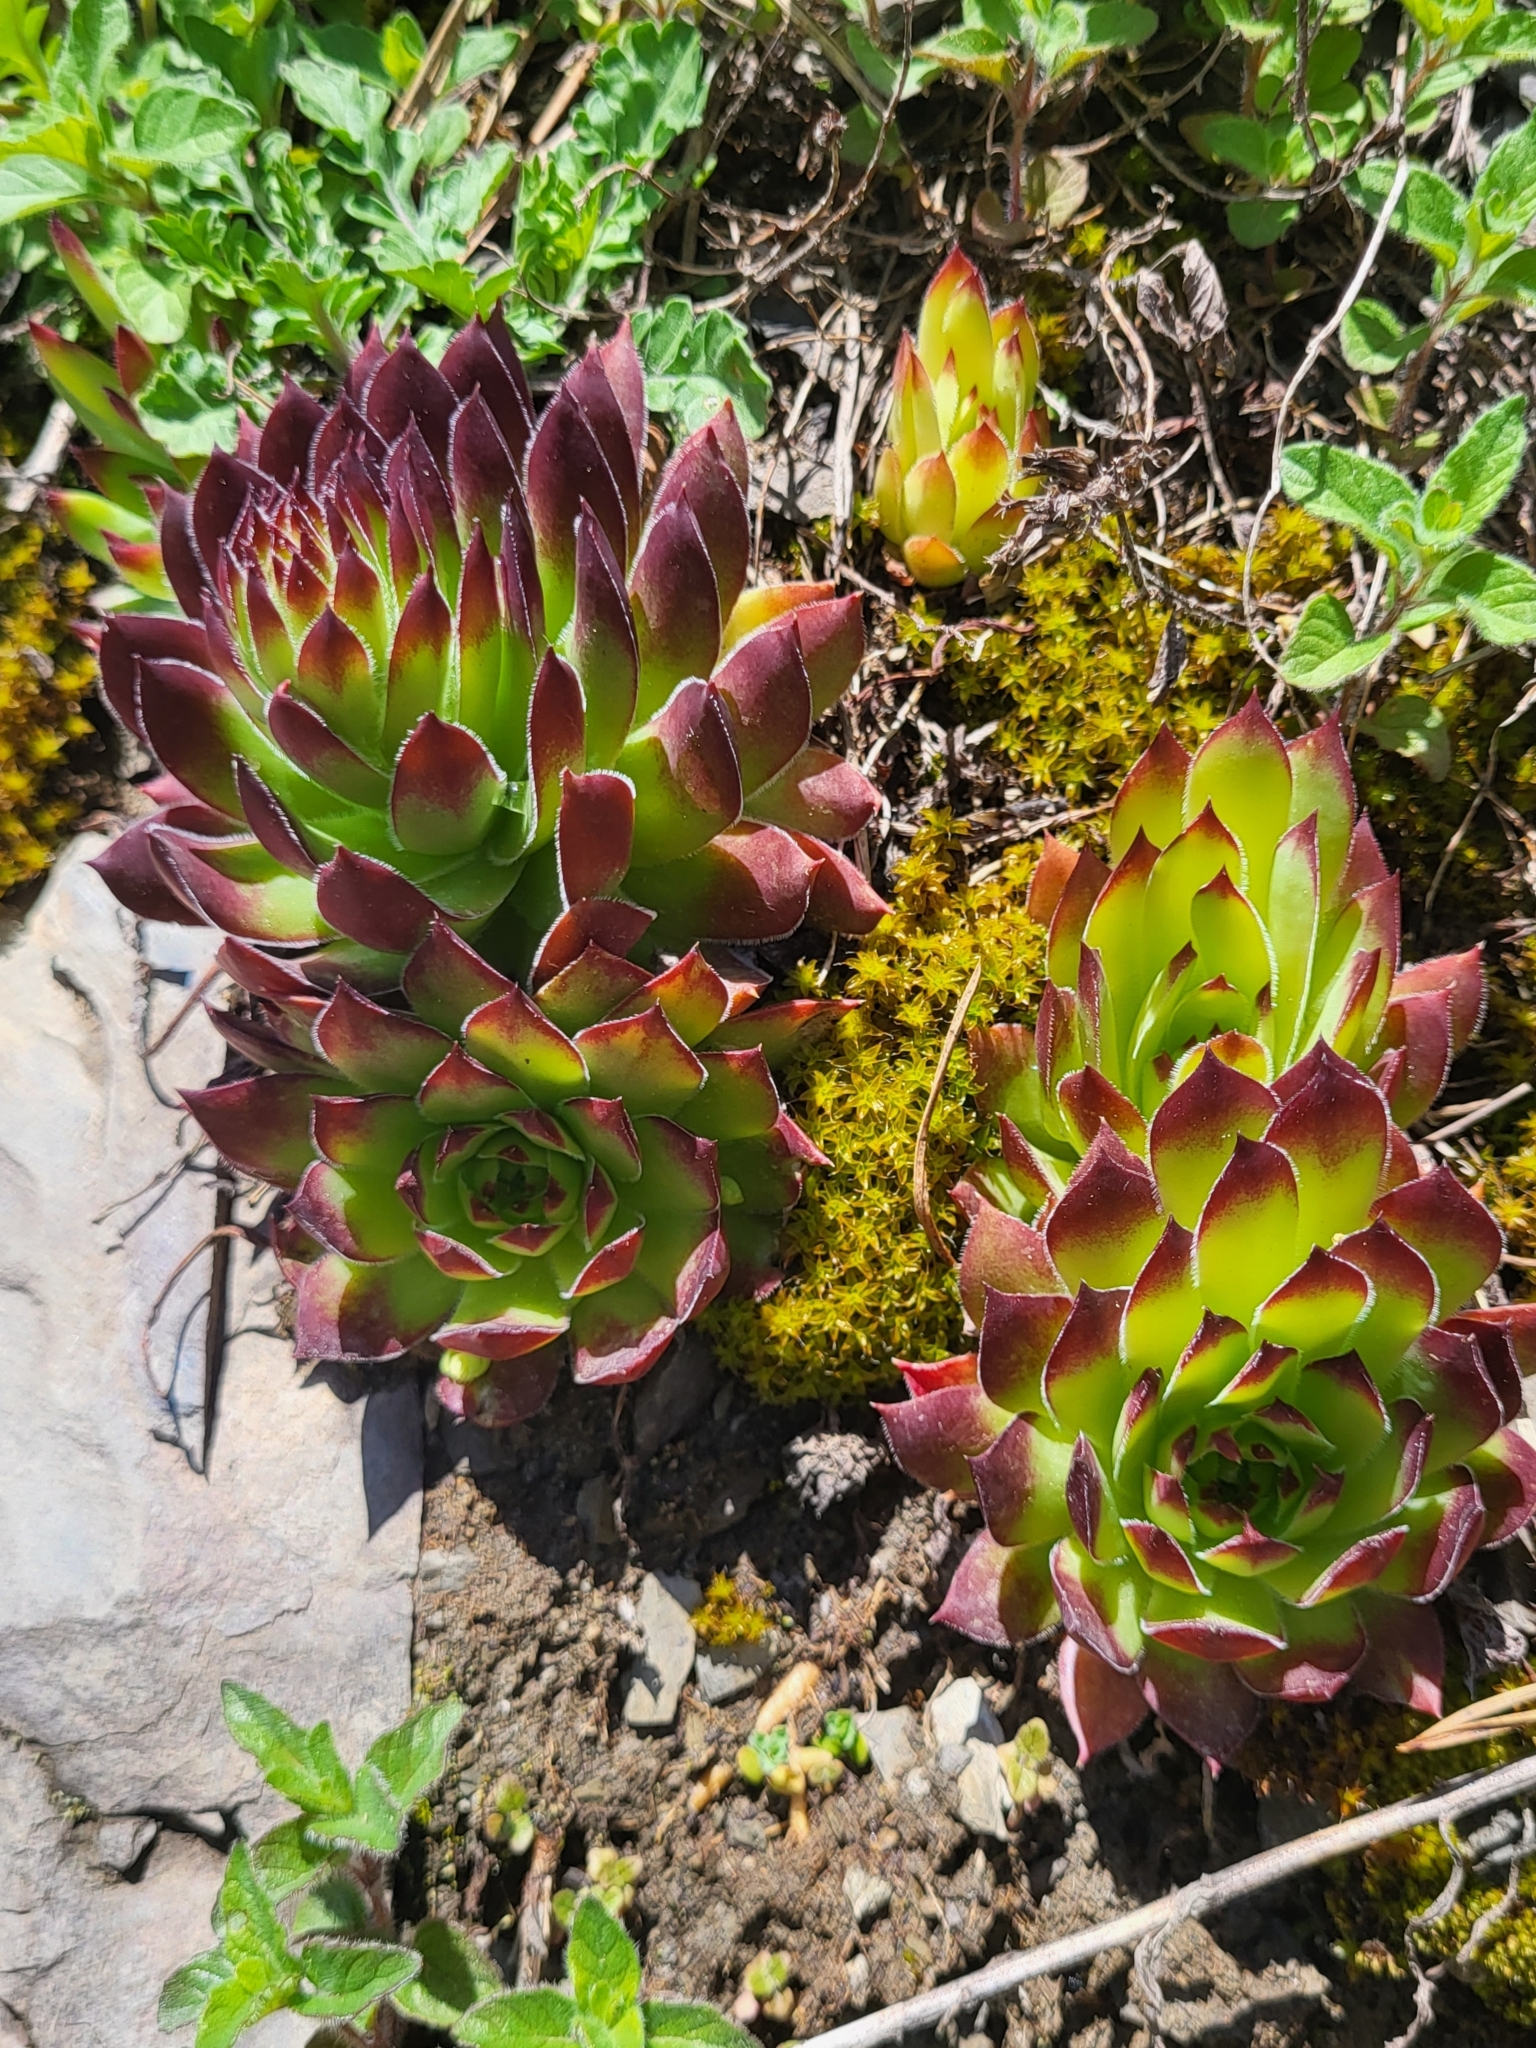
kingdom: Plantae
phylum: Tracheophyta
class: Magnoliopsida
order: Saxifragales
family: Crassulaceae
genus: Sempervivum
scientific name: Sempervivum caucasicum
